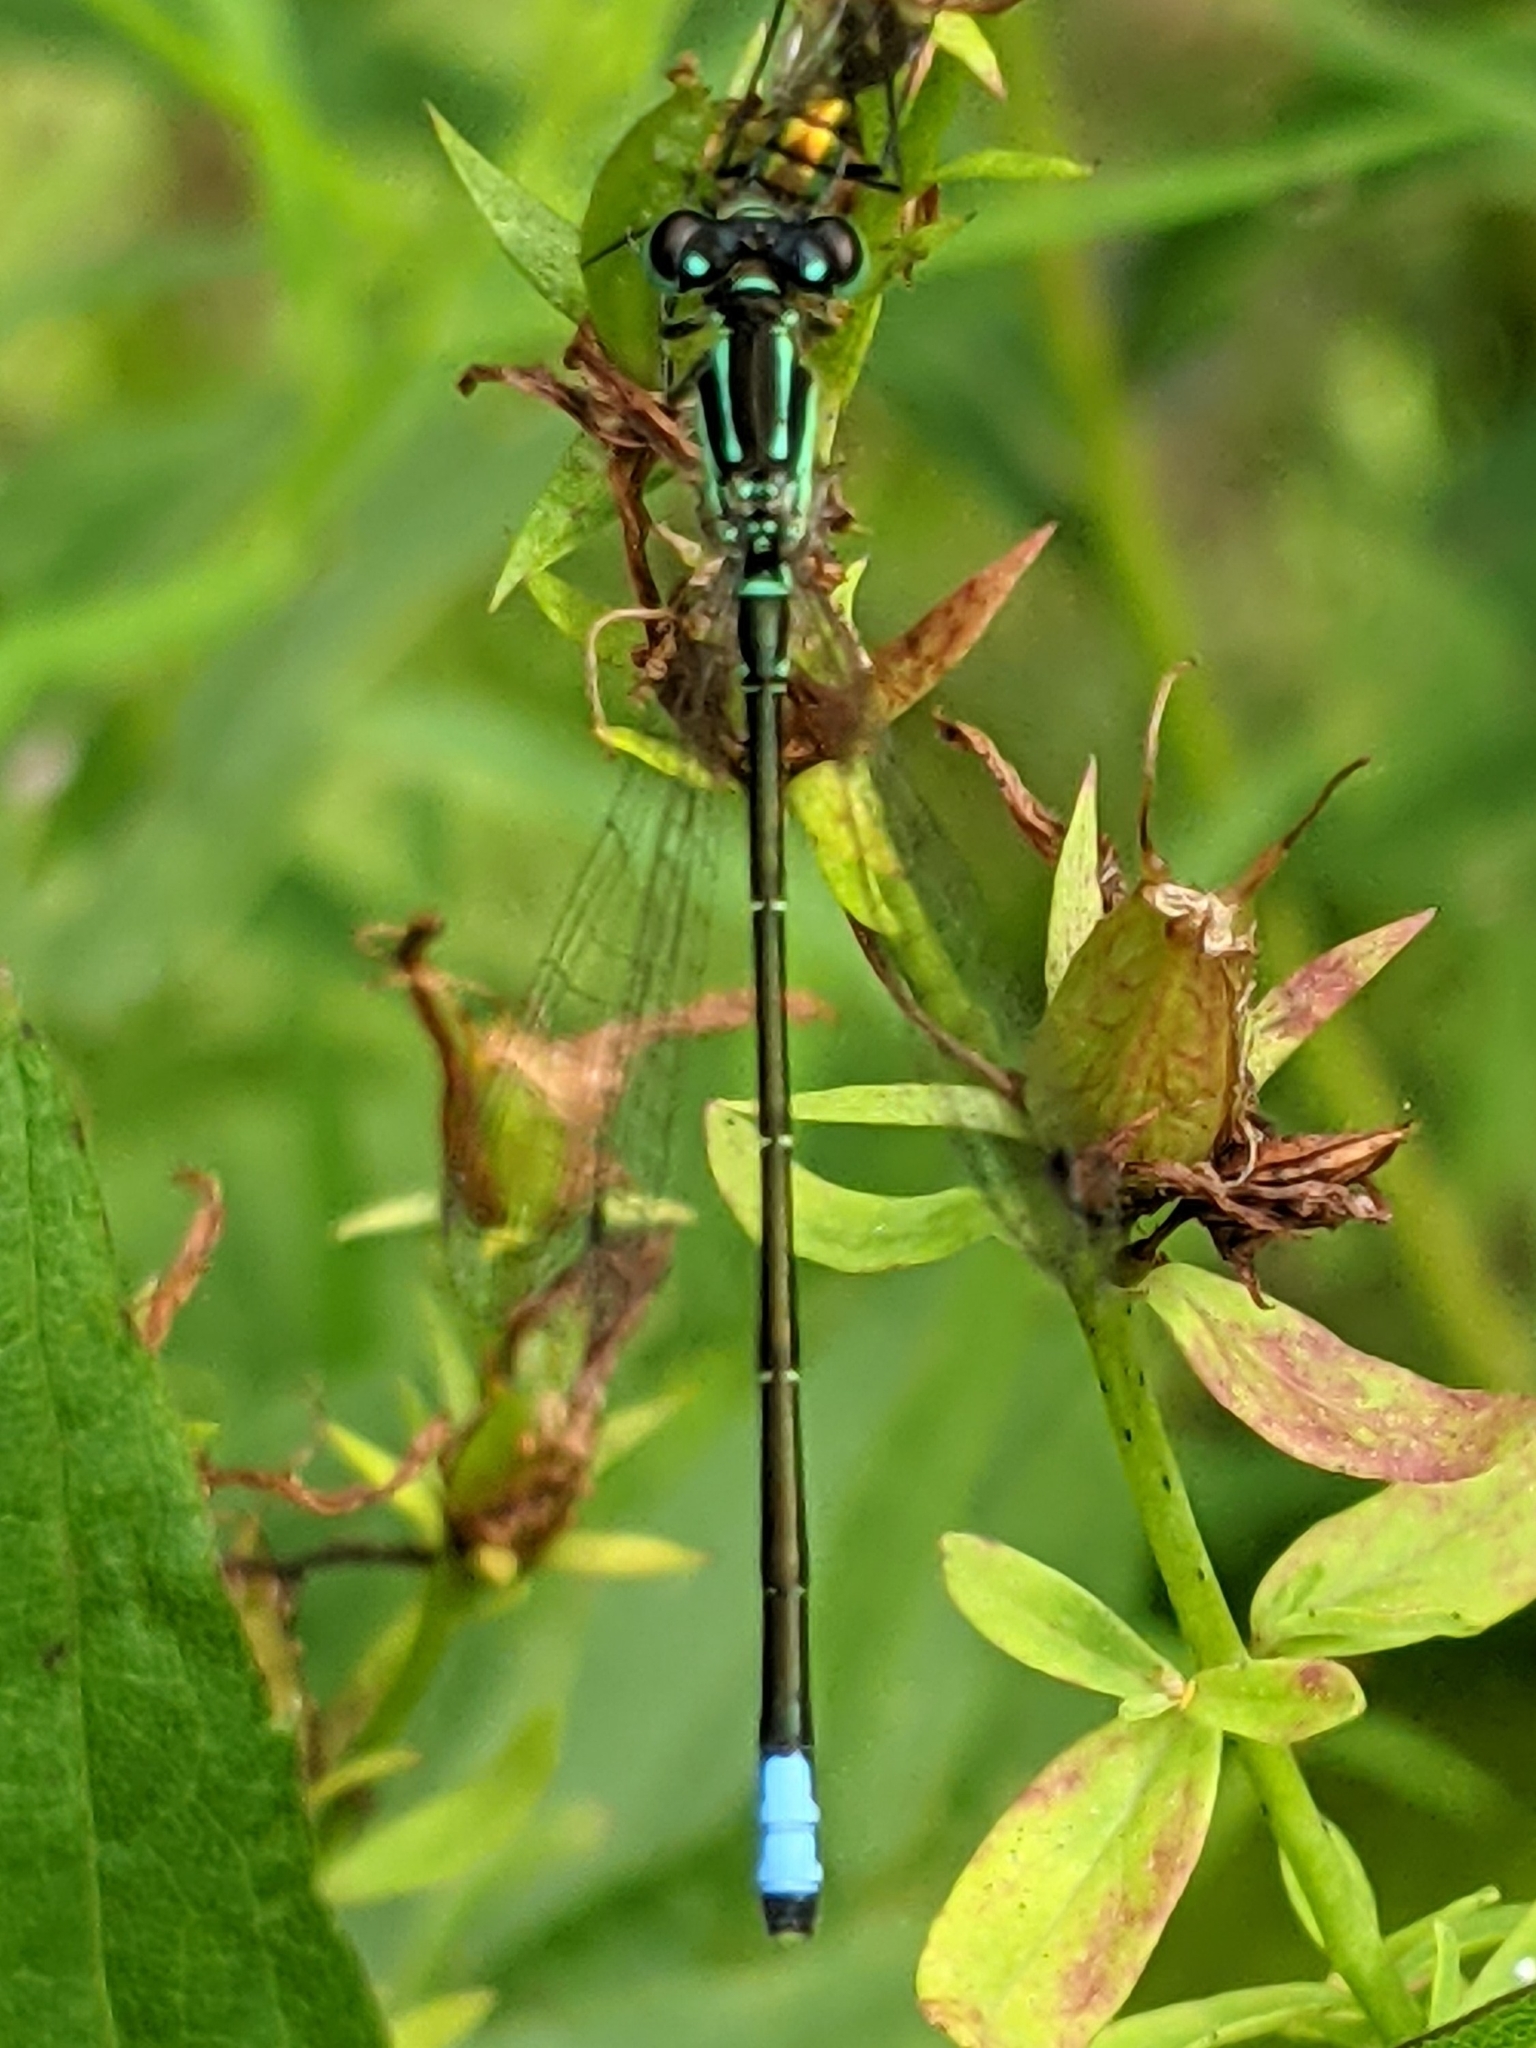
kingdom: Animalia
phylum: Arthropoda
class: Insecta
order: Odonata
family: Coenagrionidae
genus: Ischnura
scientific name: Ischnura verticalis
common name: Eastern forktail
